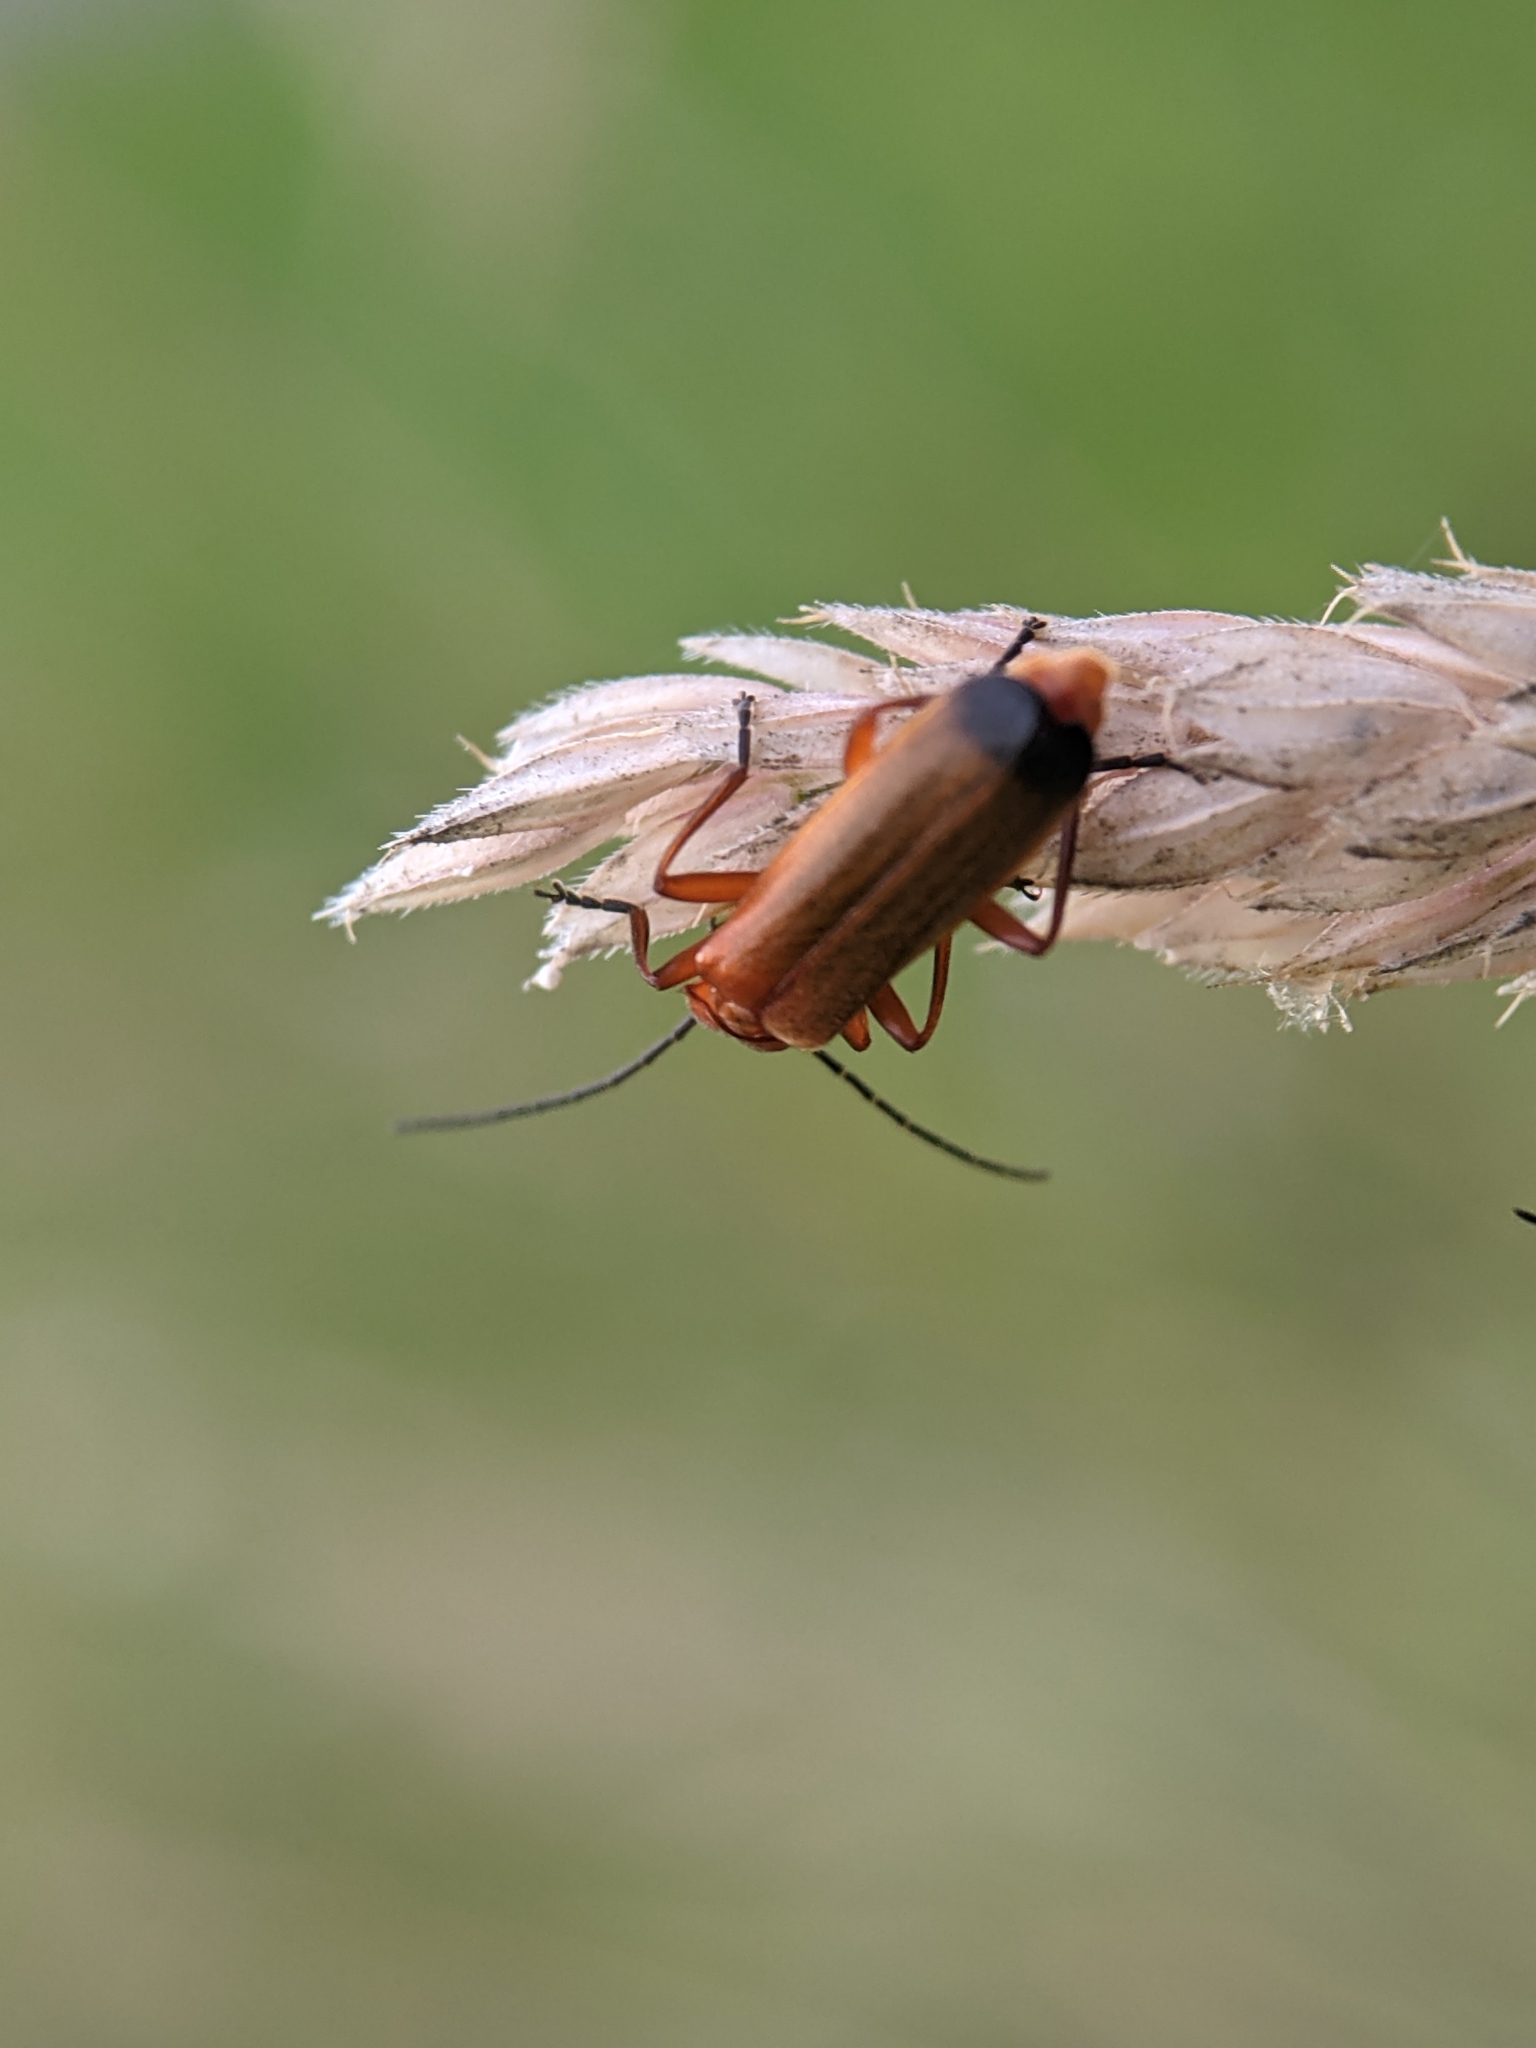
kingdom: Animalia
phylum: Arthropoda
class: Insecta
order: Coleoptera
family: Cantharidae
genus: Rhagonycha
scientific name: Rhagonycha fulva
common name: Common red soldier beetle
